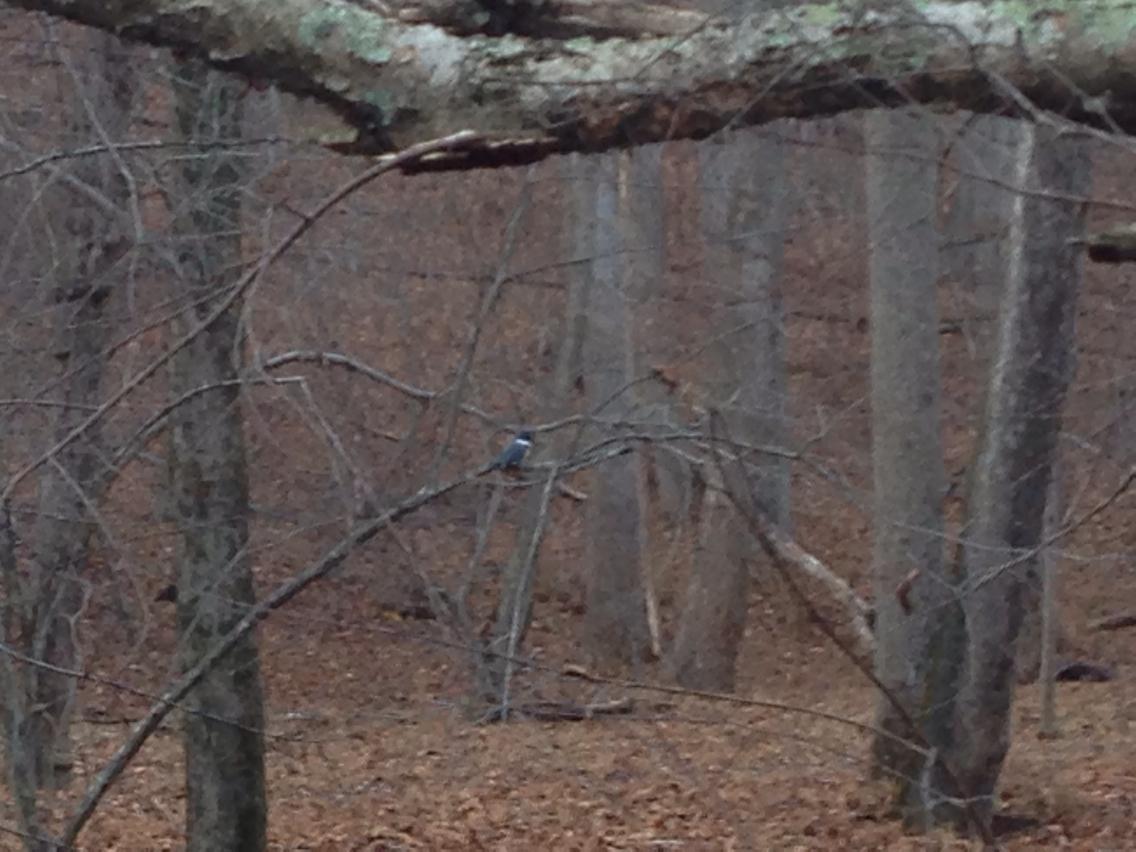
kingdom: Animalia
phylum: Chordata
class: Aves
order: Coraciiformes
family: Alcedinidae
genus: Megaceryle
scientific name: Megaceryle alcyon
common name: Belted kingfisher
